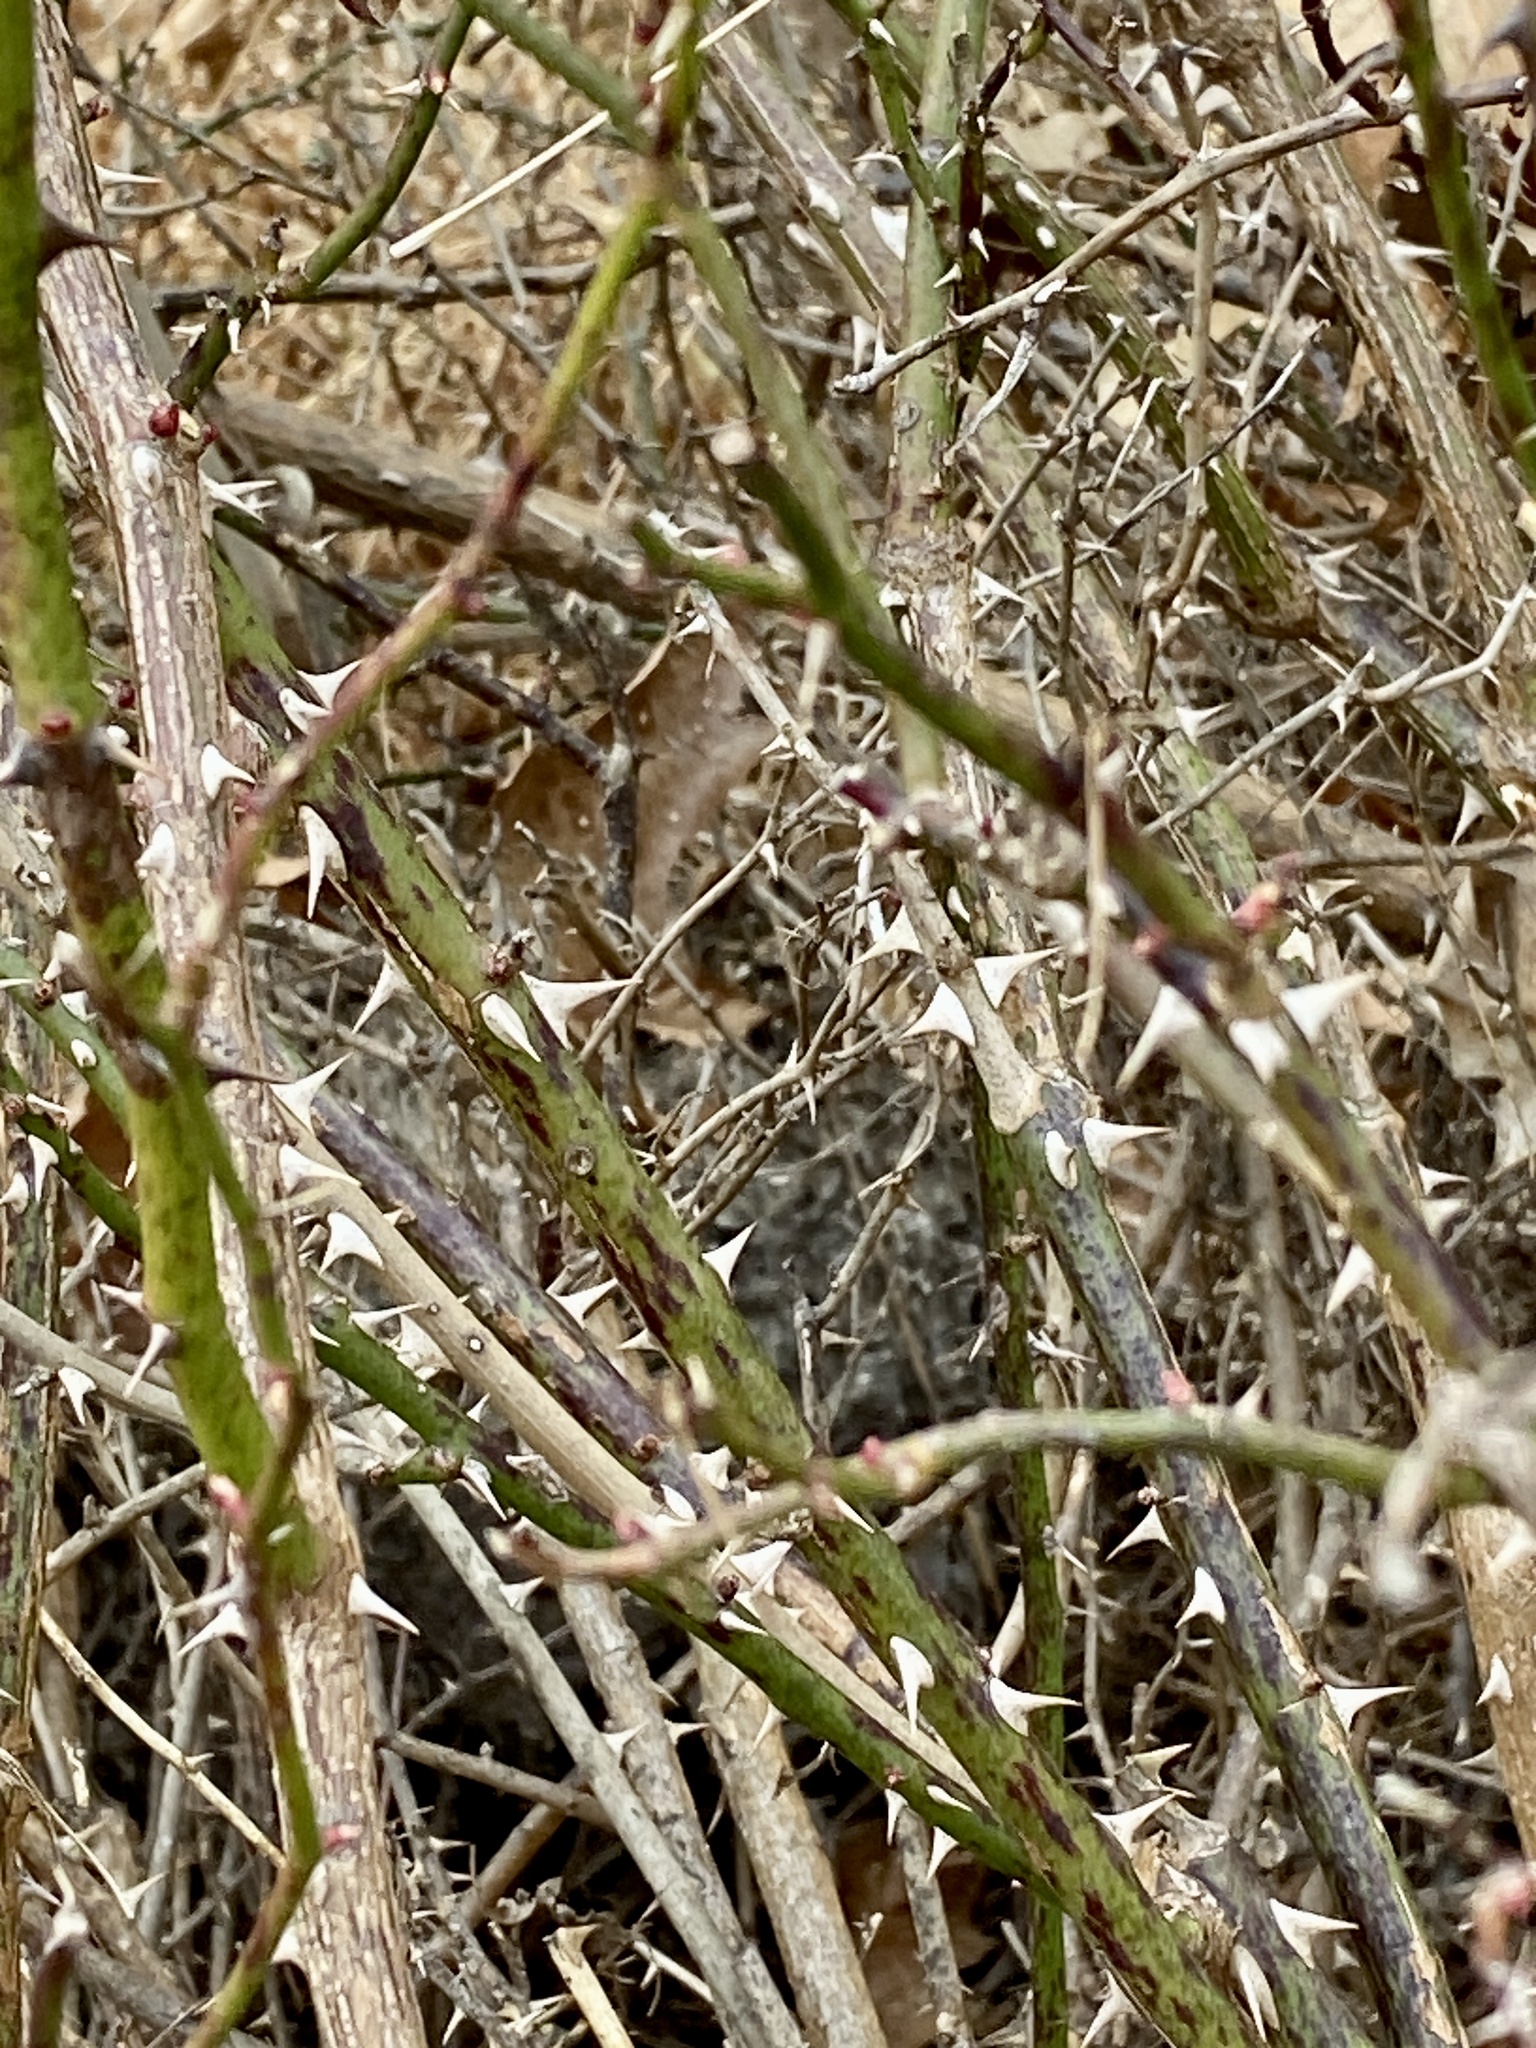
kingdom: Plantae
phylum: Tracheophyta
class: Magnoliopsida
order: Rosales
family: Rosaceae
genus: Rosa
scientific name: Rosa multiflora
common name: Multiflora rose
